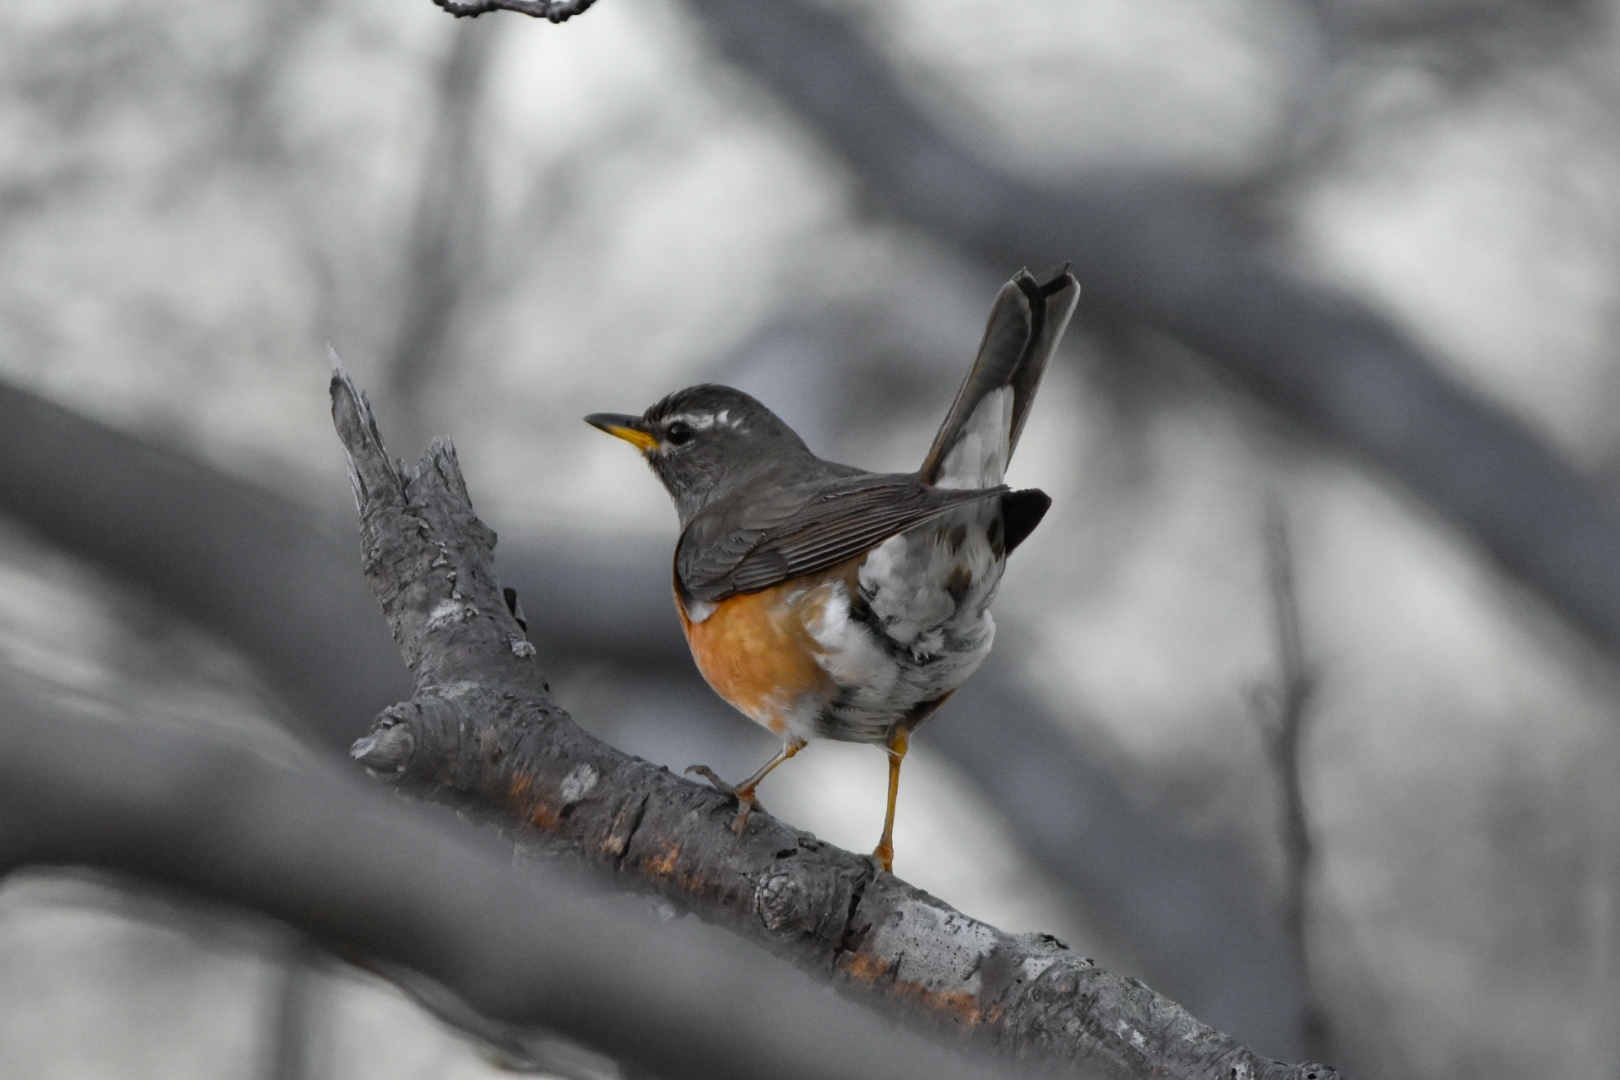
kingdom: Animalia
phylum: Chordata
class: Aves
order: Passeriformes
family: Turdidae
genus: Turdus
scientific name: Turdus obscurus
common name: Eyebrowed thrush
